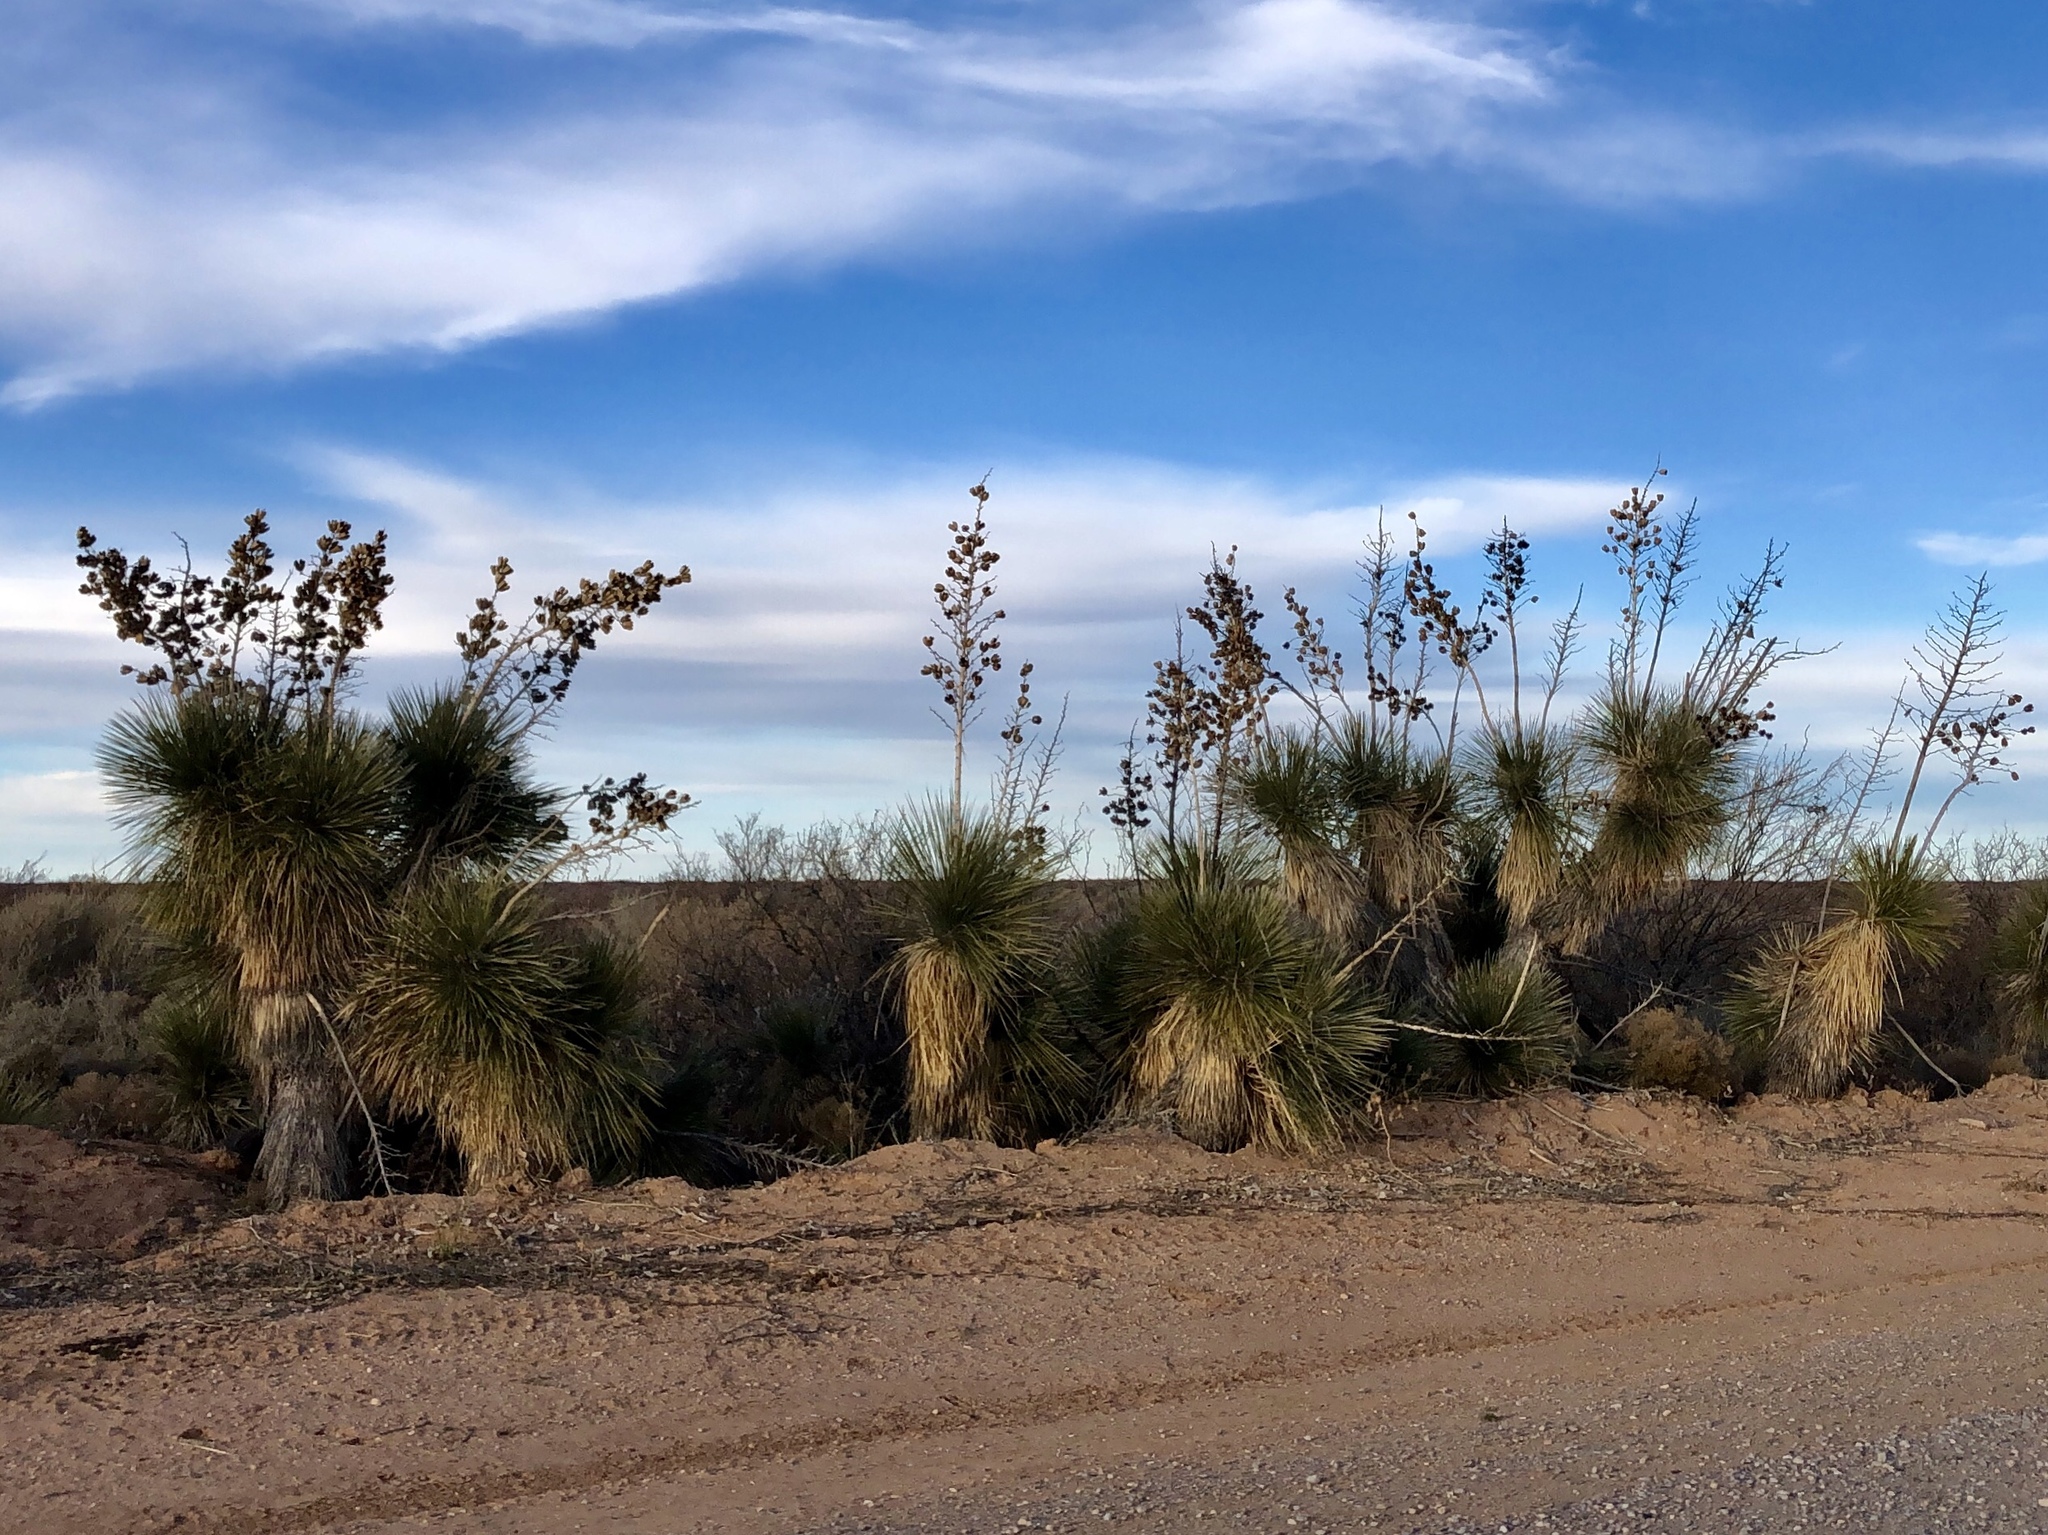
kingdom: Plantae
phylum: Tracheophyta
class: Liliopsida
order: Asparagales
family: Asparagaceae
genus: Yucca
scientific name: Yucca elata
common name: Palmella
